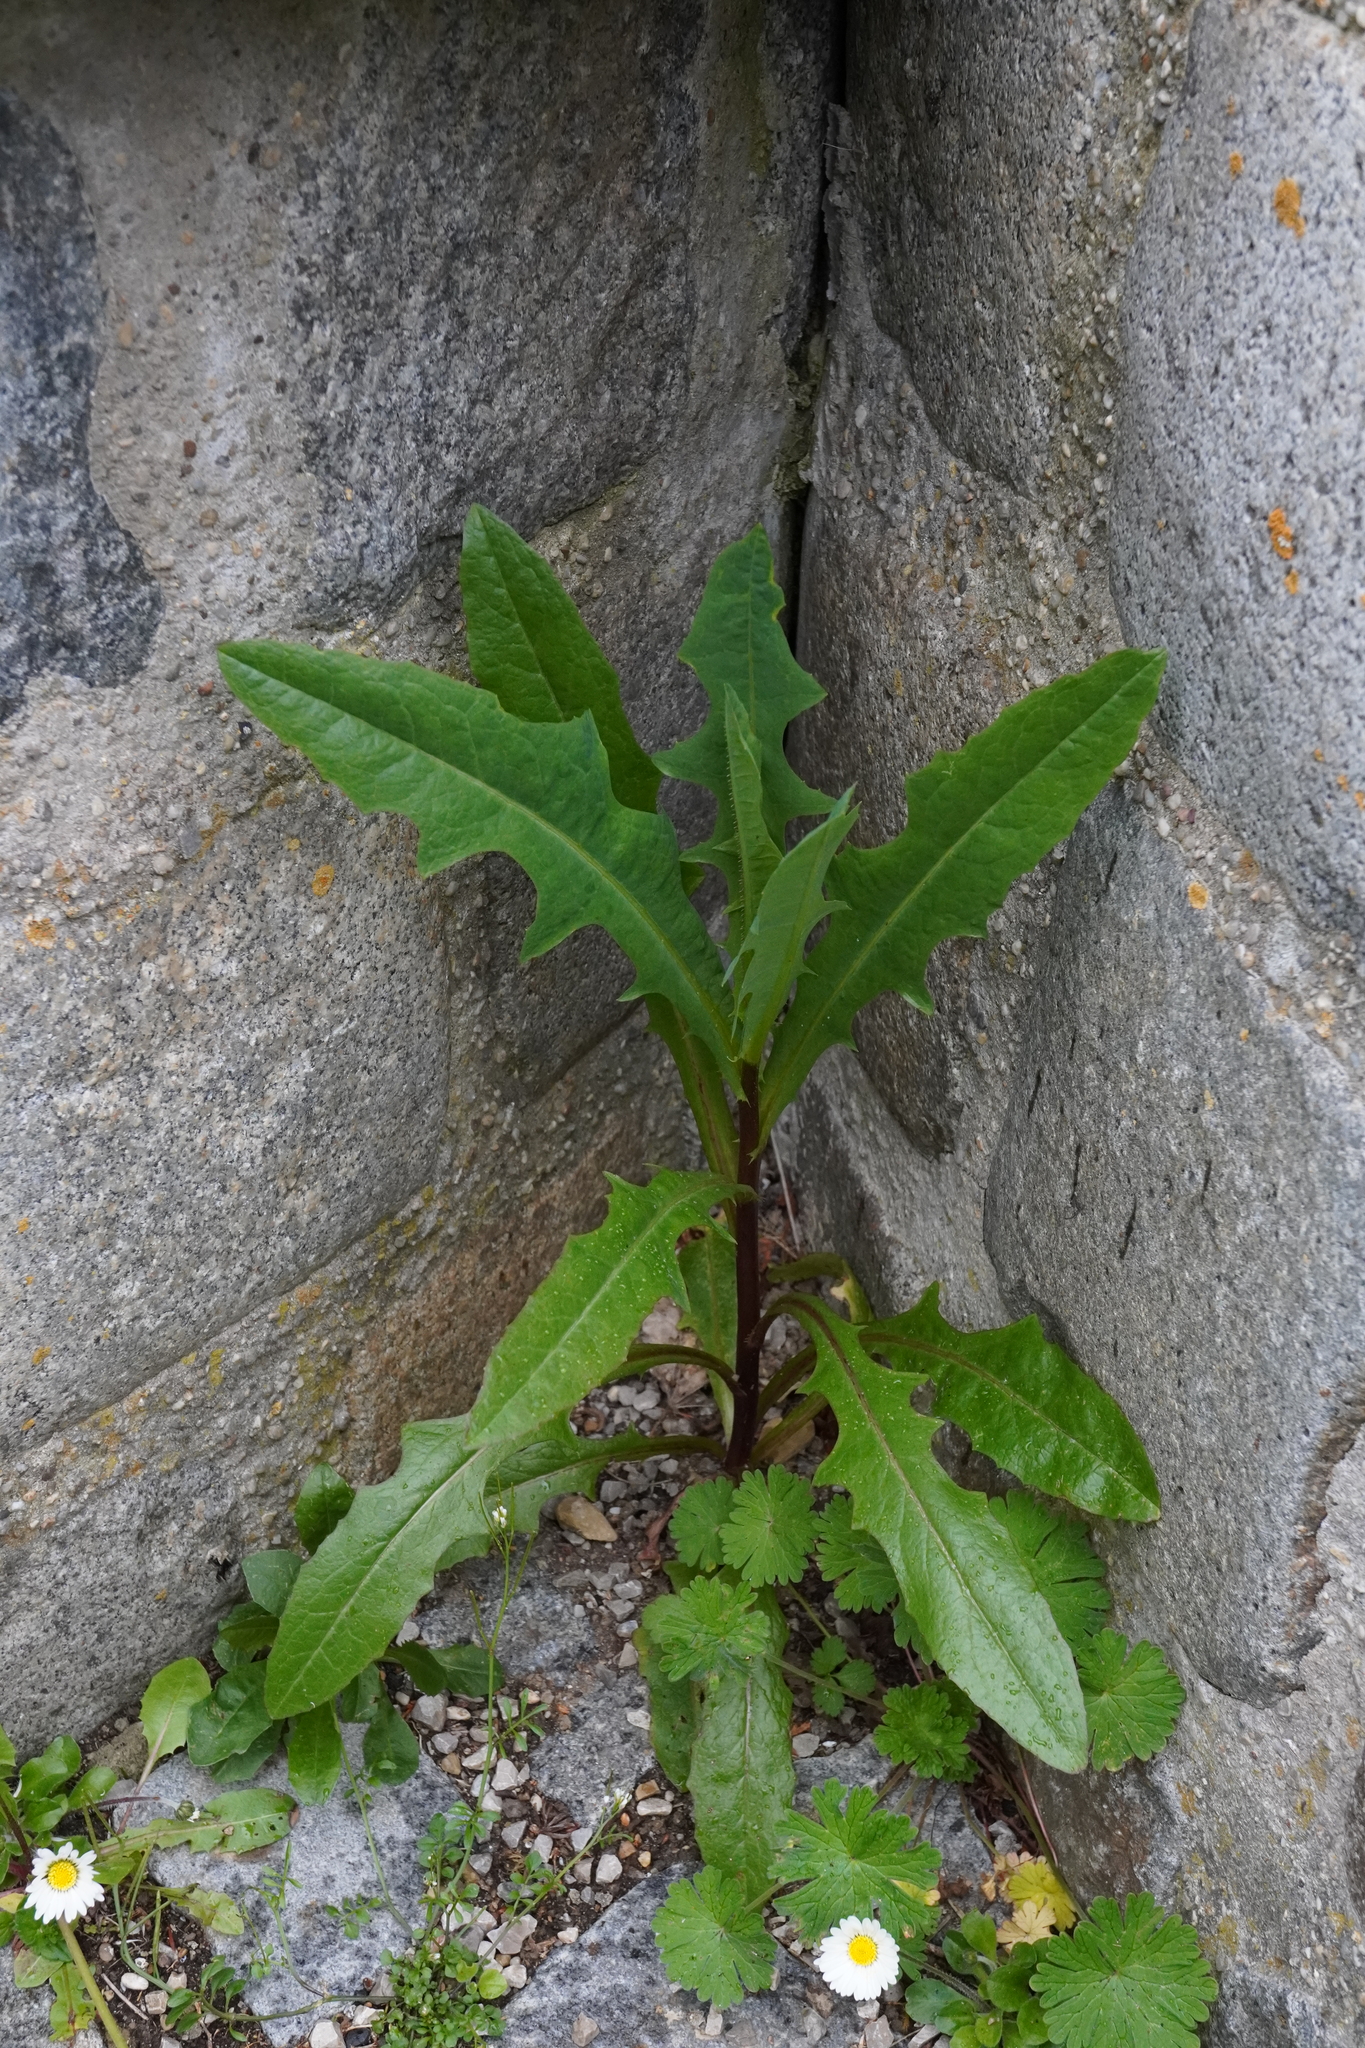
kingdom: Plantae
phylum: Tracheophyta
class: Magnoliopsida
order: Asterales
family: Asteraceae
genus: Lactuca
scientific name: Lactuca serriola
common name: Prickly lettuce
